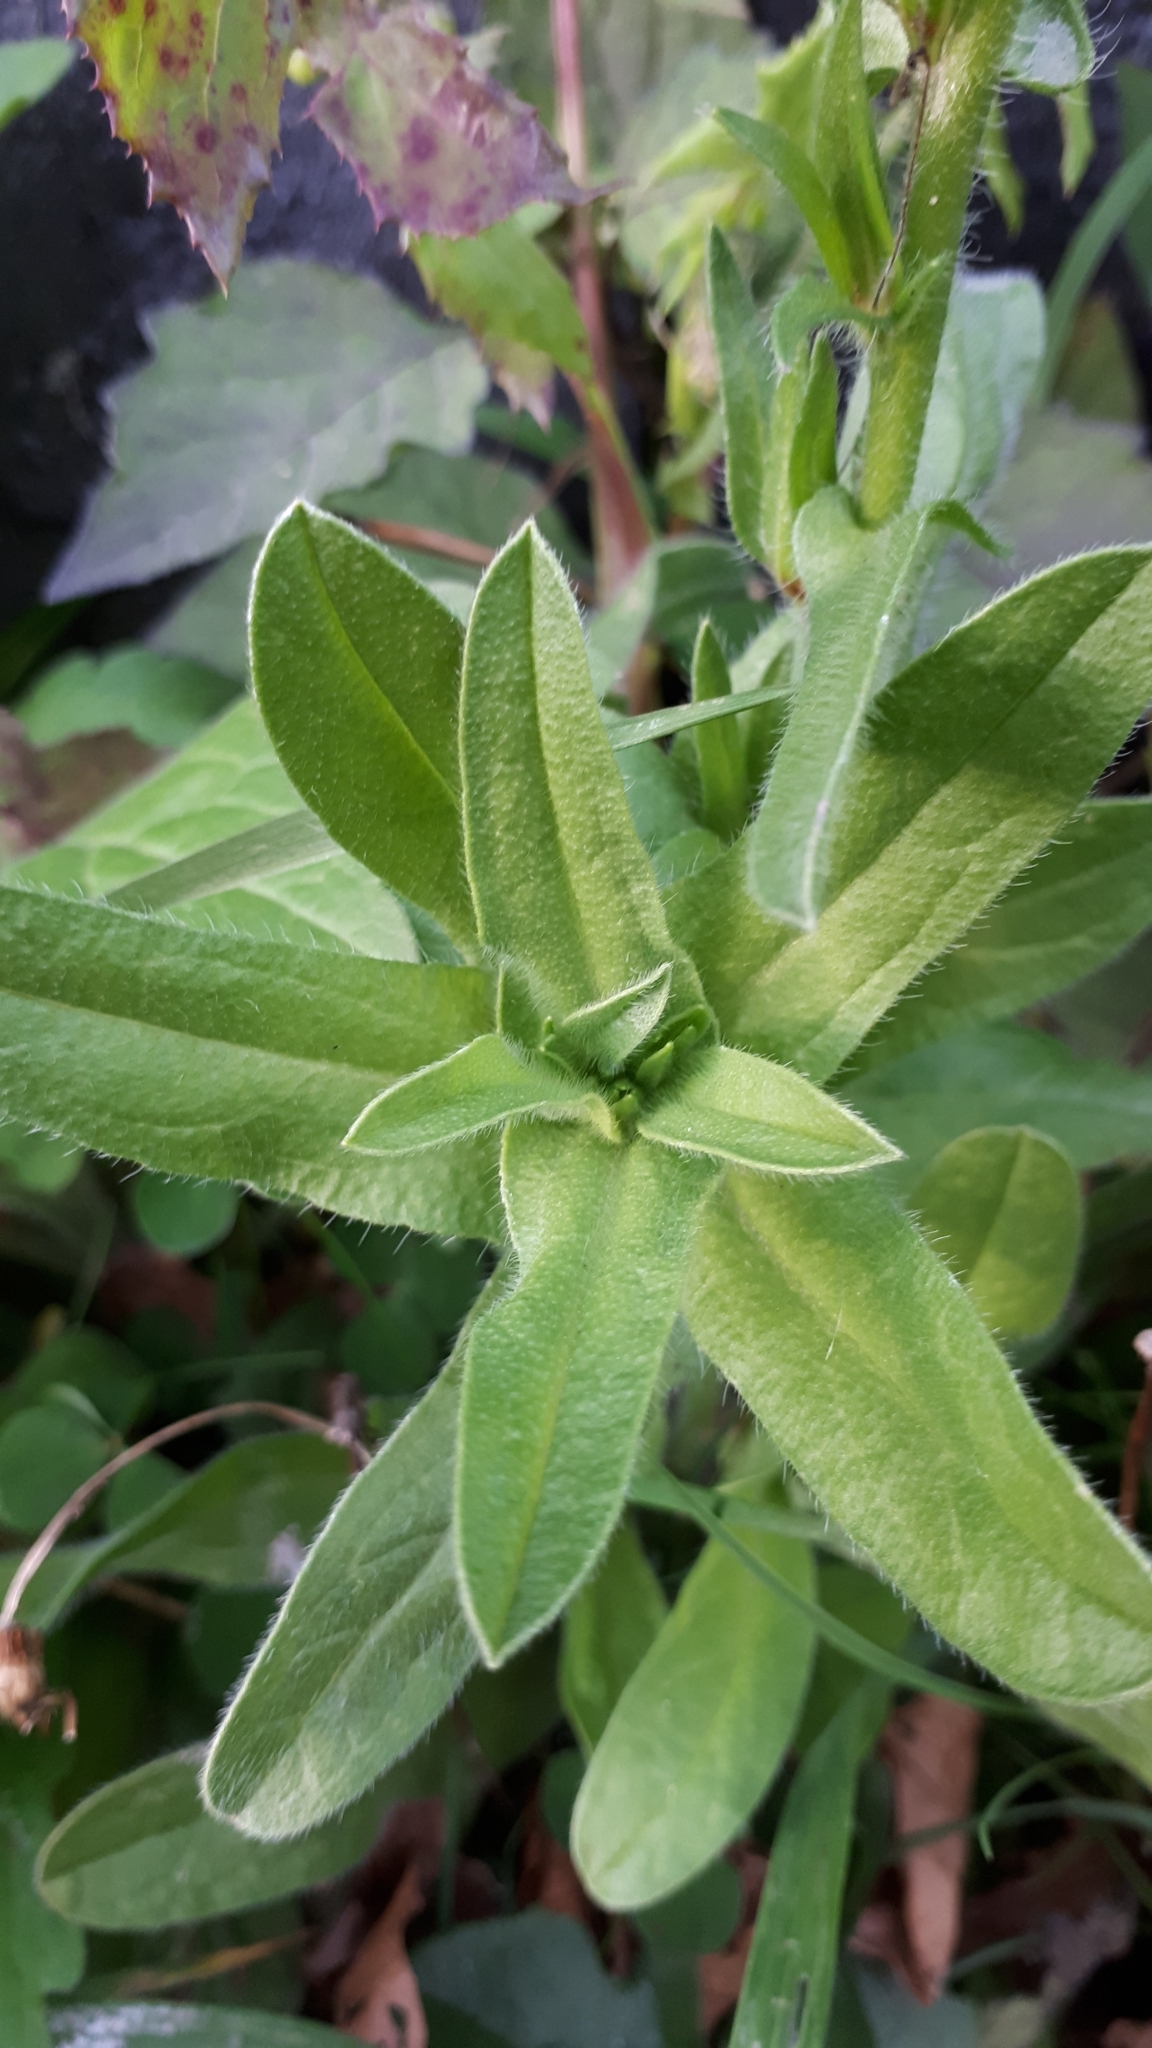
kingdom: Plantae
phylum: Tracheophyta
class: Magnoliopsida
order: Boraginales
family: Boraginaceae
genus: Echium
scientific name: Echium vulgare
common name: Common viper's bugloss
